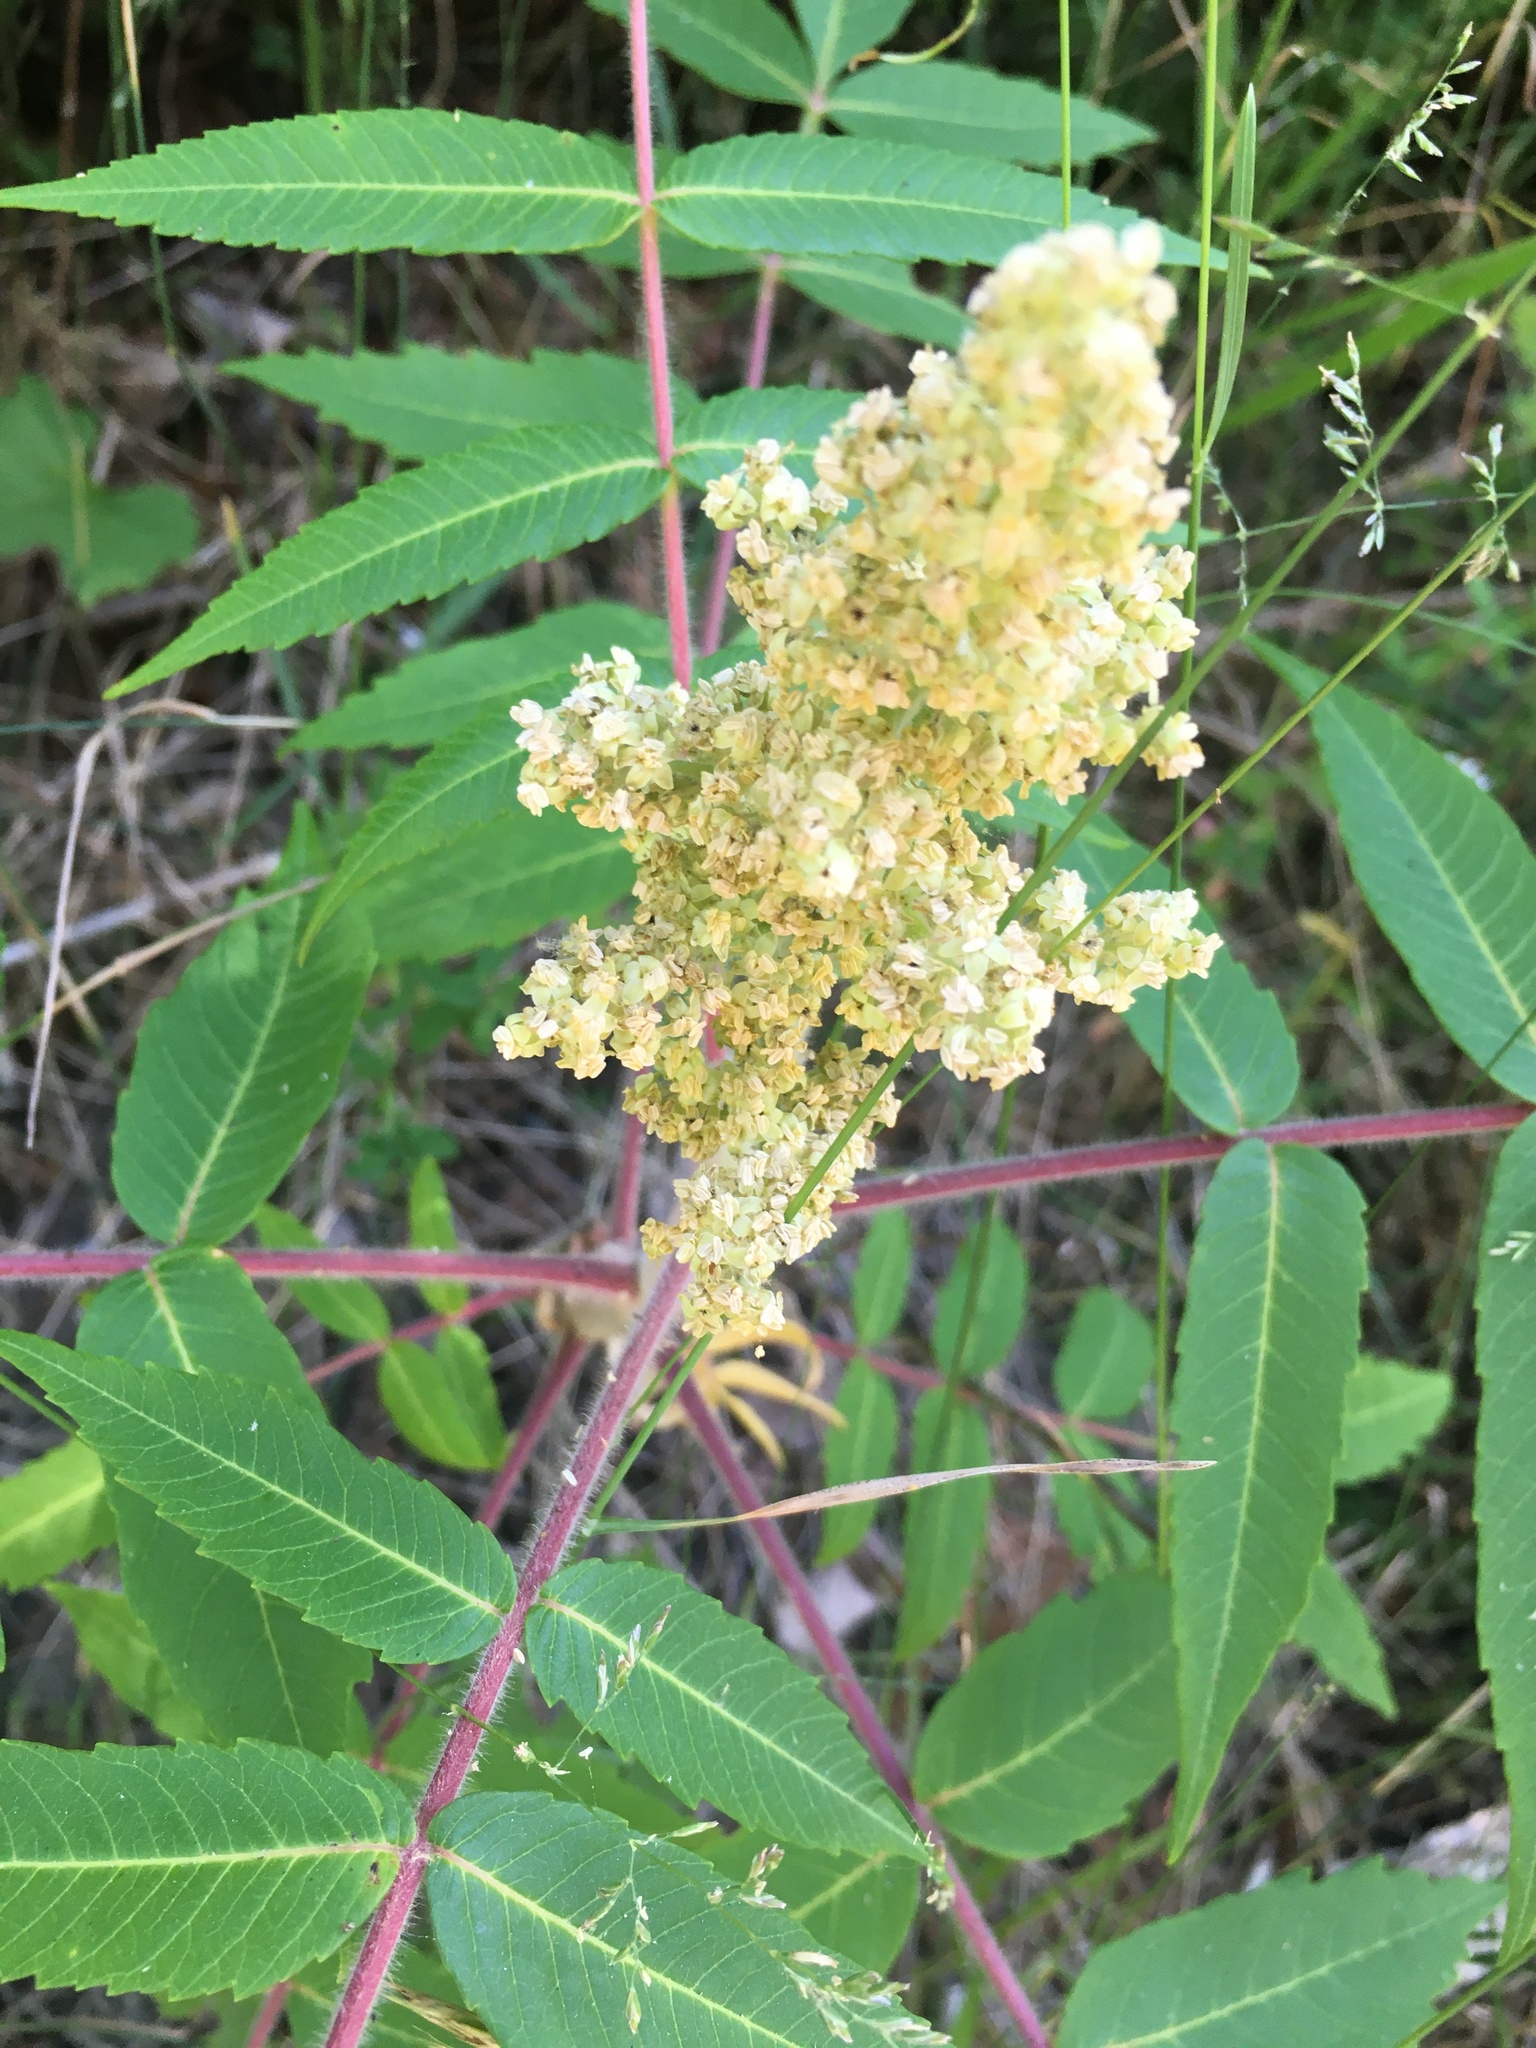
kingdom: Plantae
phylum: Tracheophyta
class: Magnoliopsida
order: Sapindales
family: Anacardiaceae
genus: Rhus
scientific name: Rhus typhina
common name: Staghorn sumac
